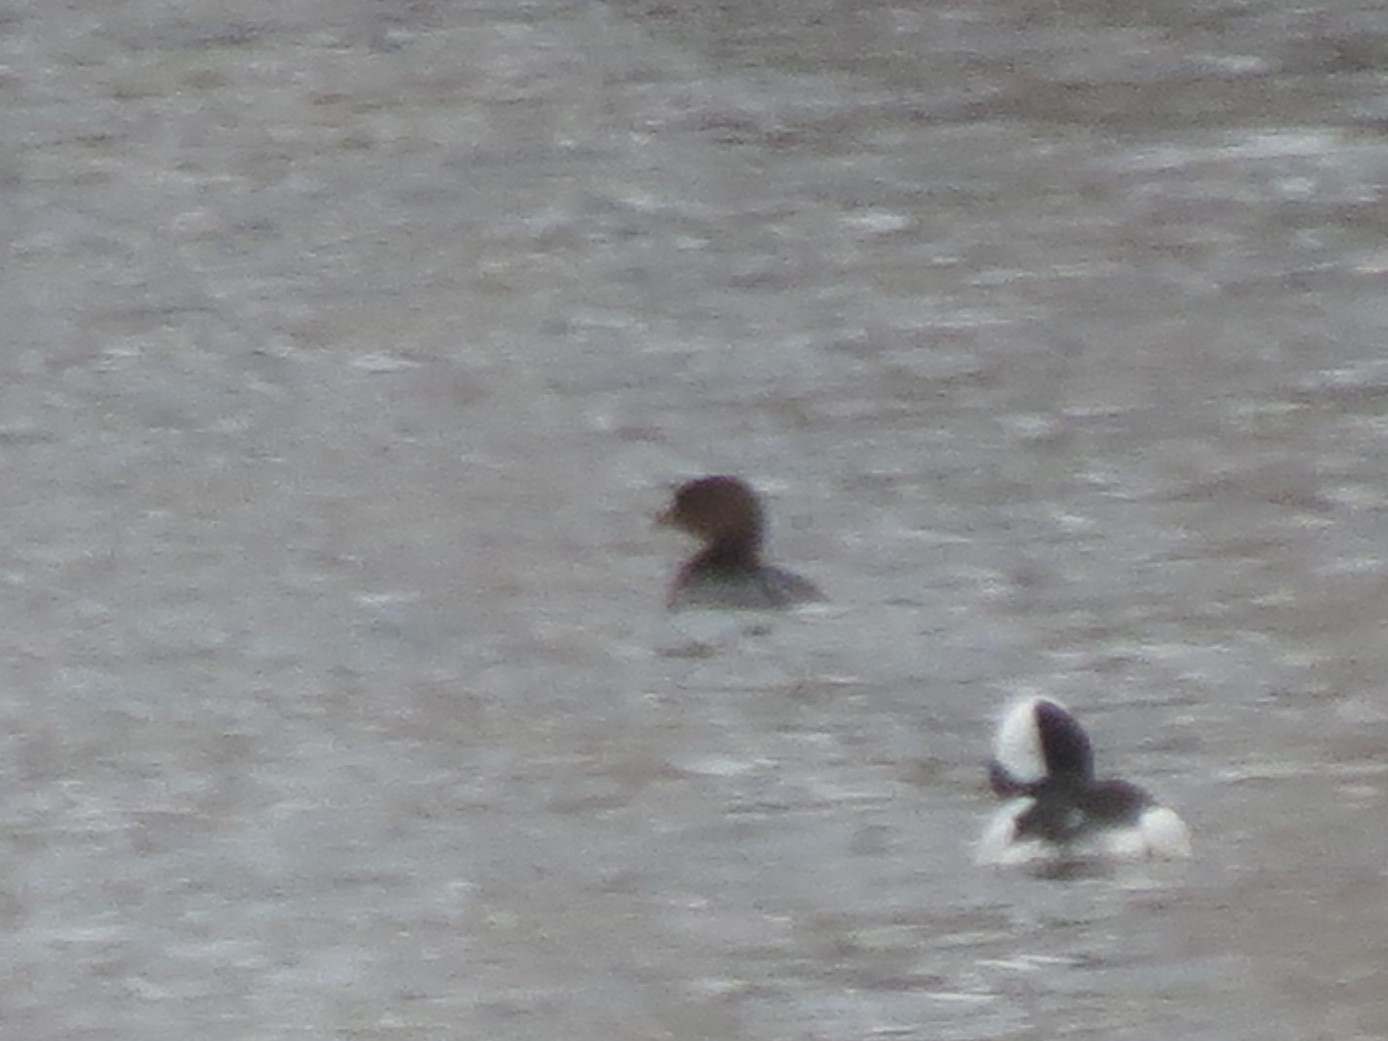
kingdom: Animalia
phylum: Chordata
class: Aves
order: Podicipediformes
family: Podicipedidae
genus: Podilymbus
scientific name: Podilymbus podiceps
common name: Pied-billed grebe
